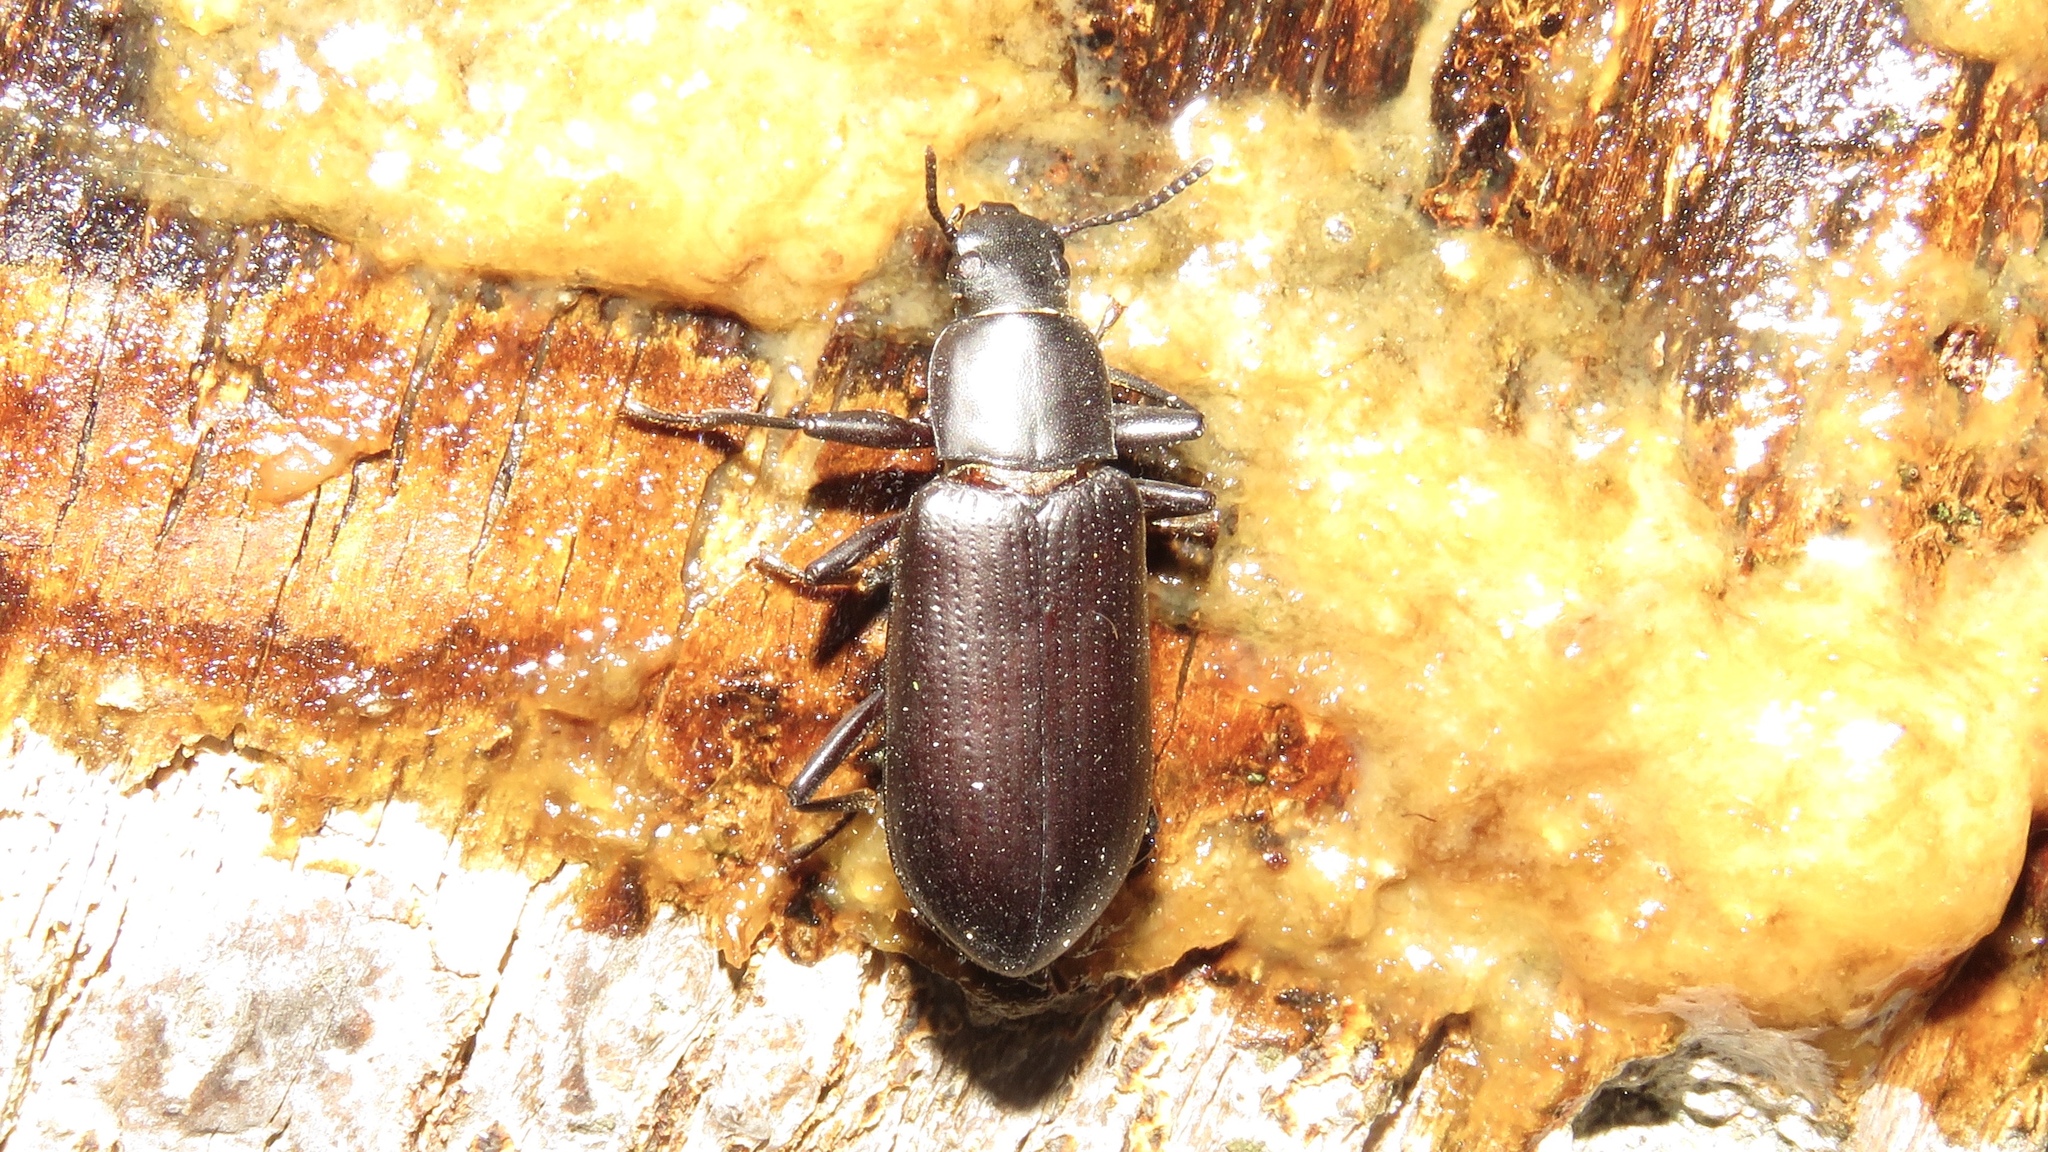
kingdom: Animalia
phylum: Arthropoda
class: Insecta
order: Coleoptera
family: Tenebrionidae
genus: Alobates
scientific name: Alobates pensylvanicus
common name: False mealworm beetle
